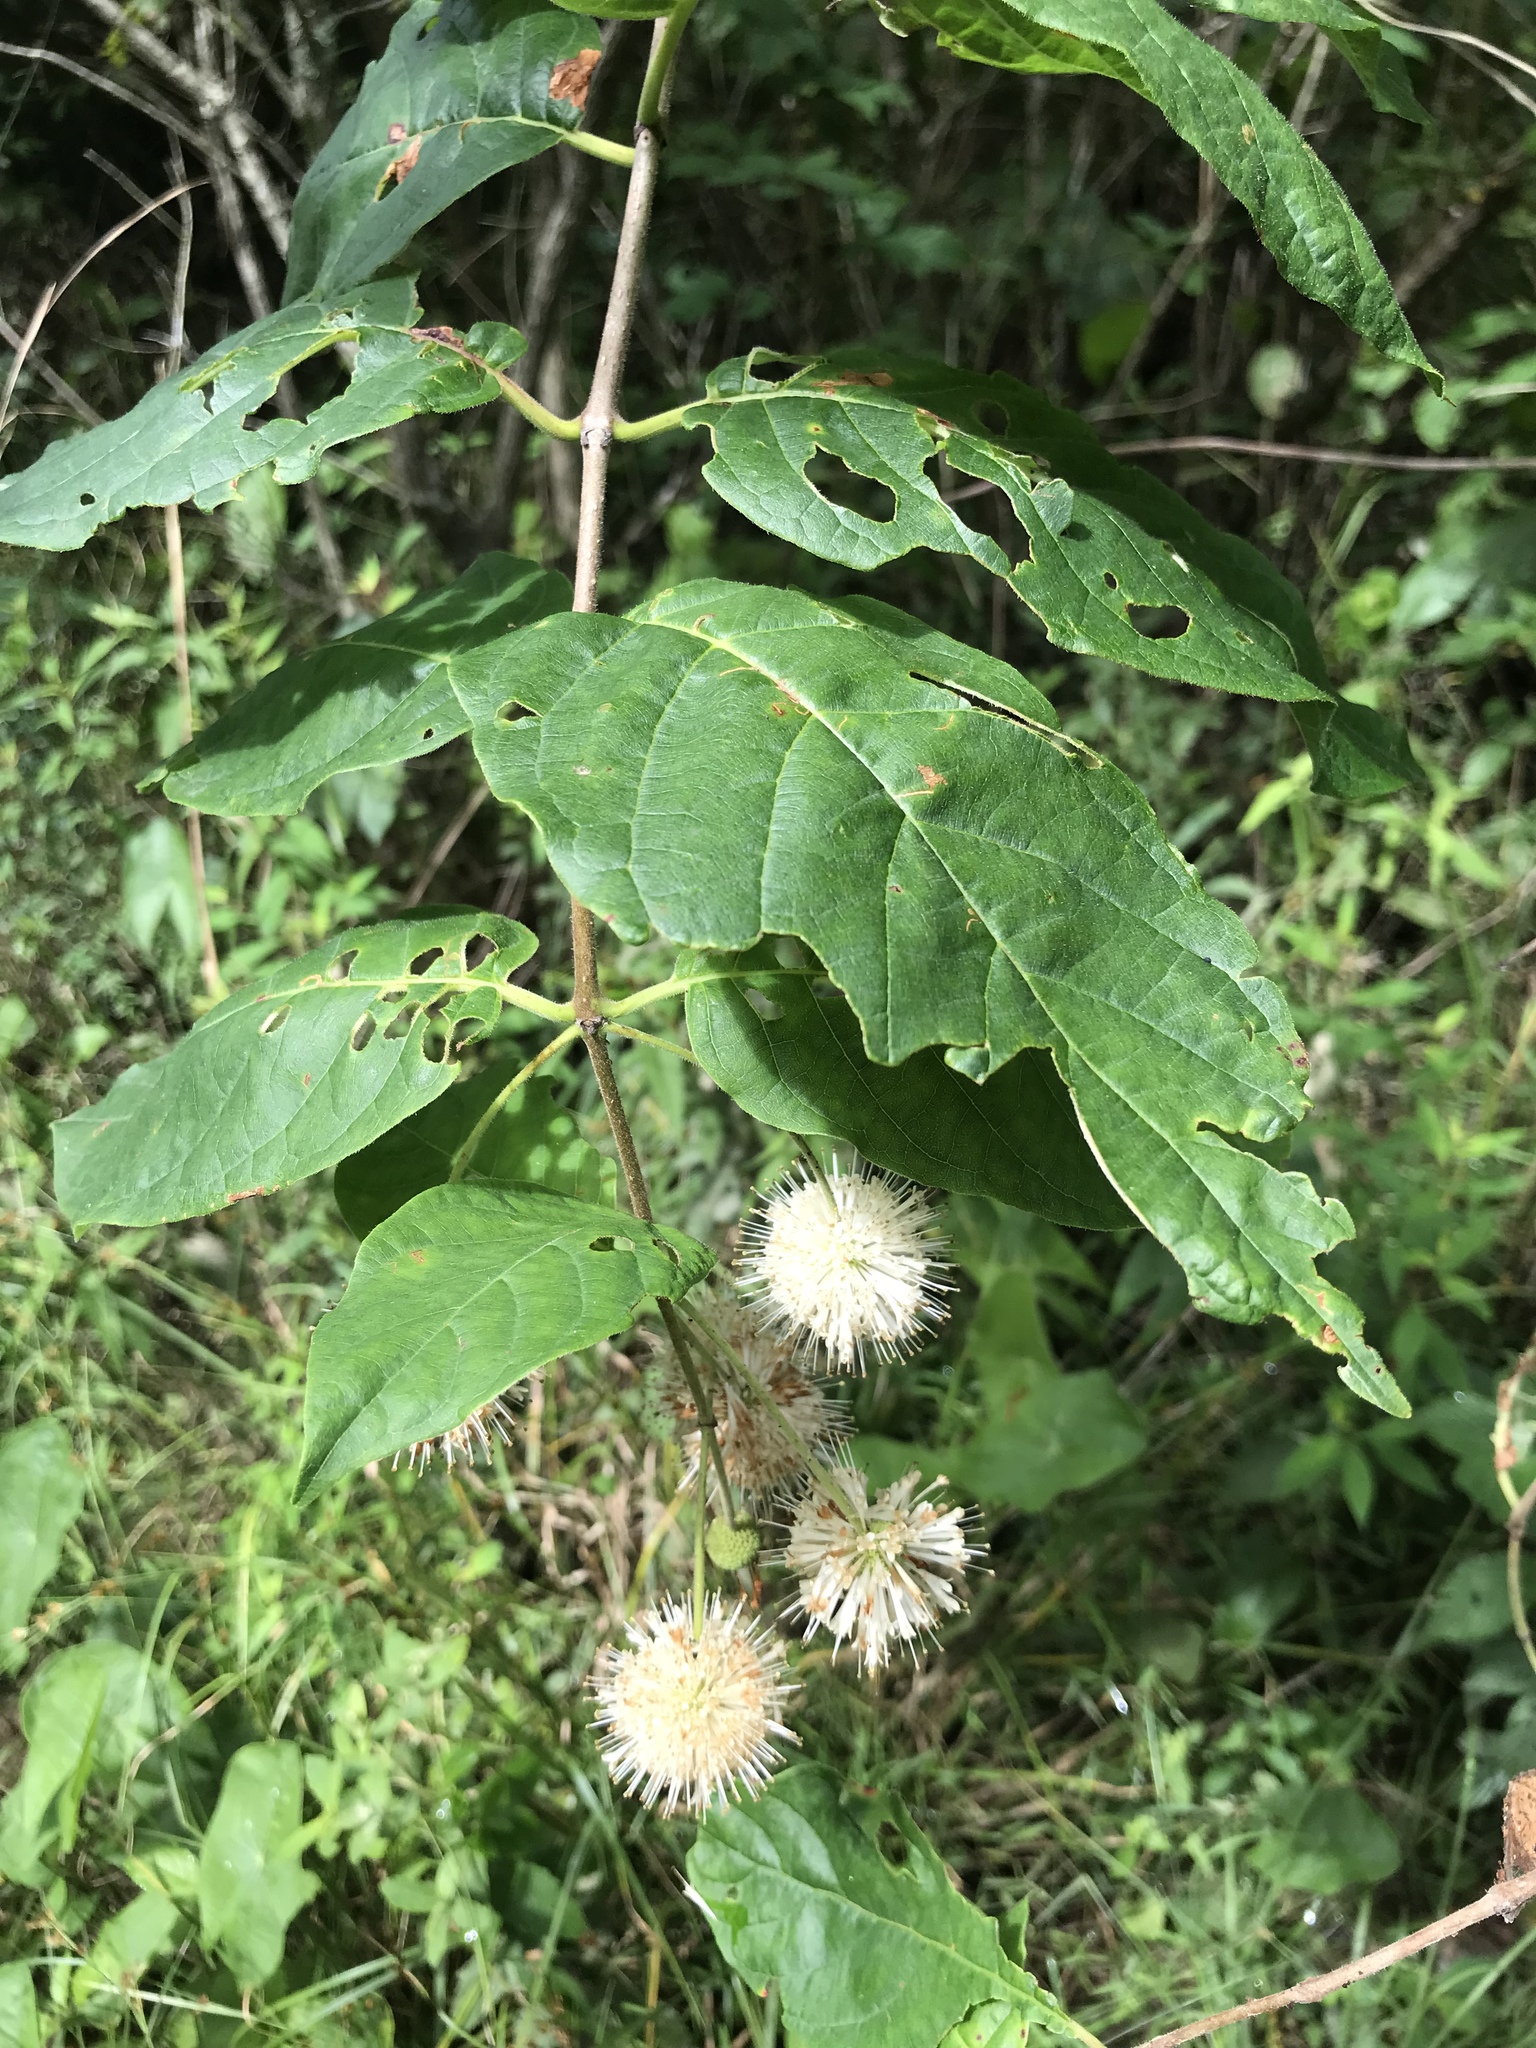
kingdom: Plantae
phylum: Tracheophyta
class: Magnoliopsida
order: Gentianales
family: Rubiaceae
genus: Cephalanthus
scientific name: Cephalanthus occidentalis
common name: Button-willow
